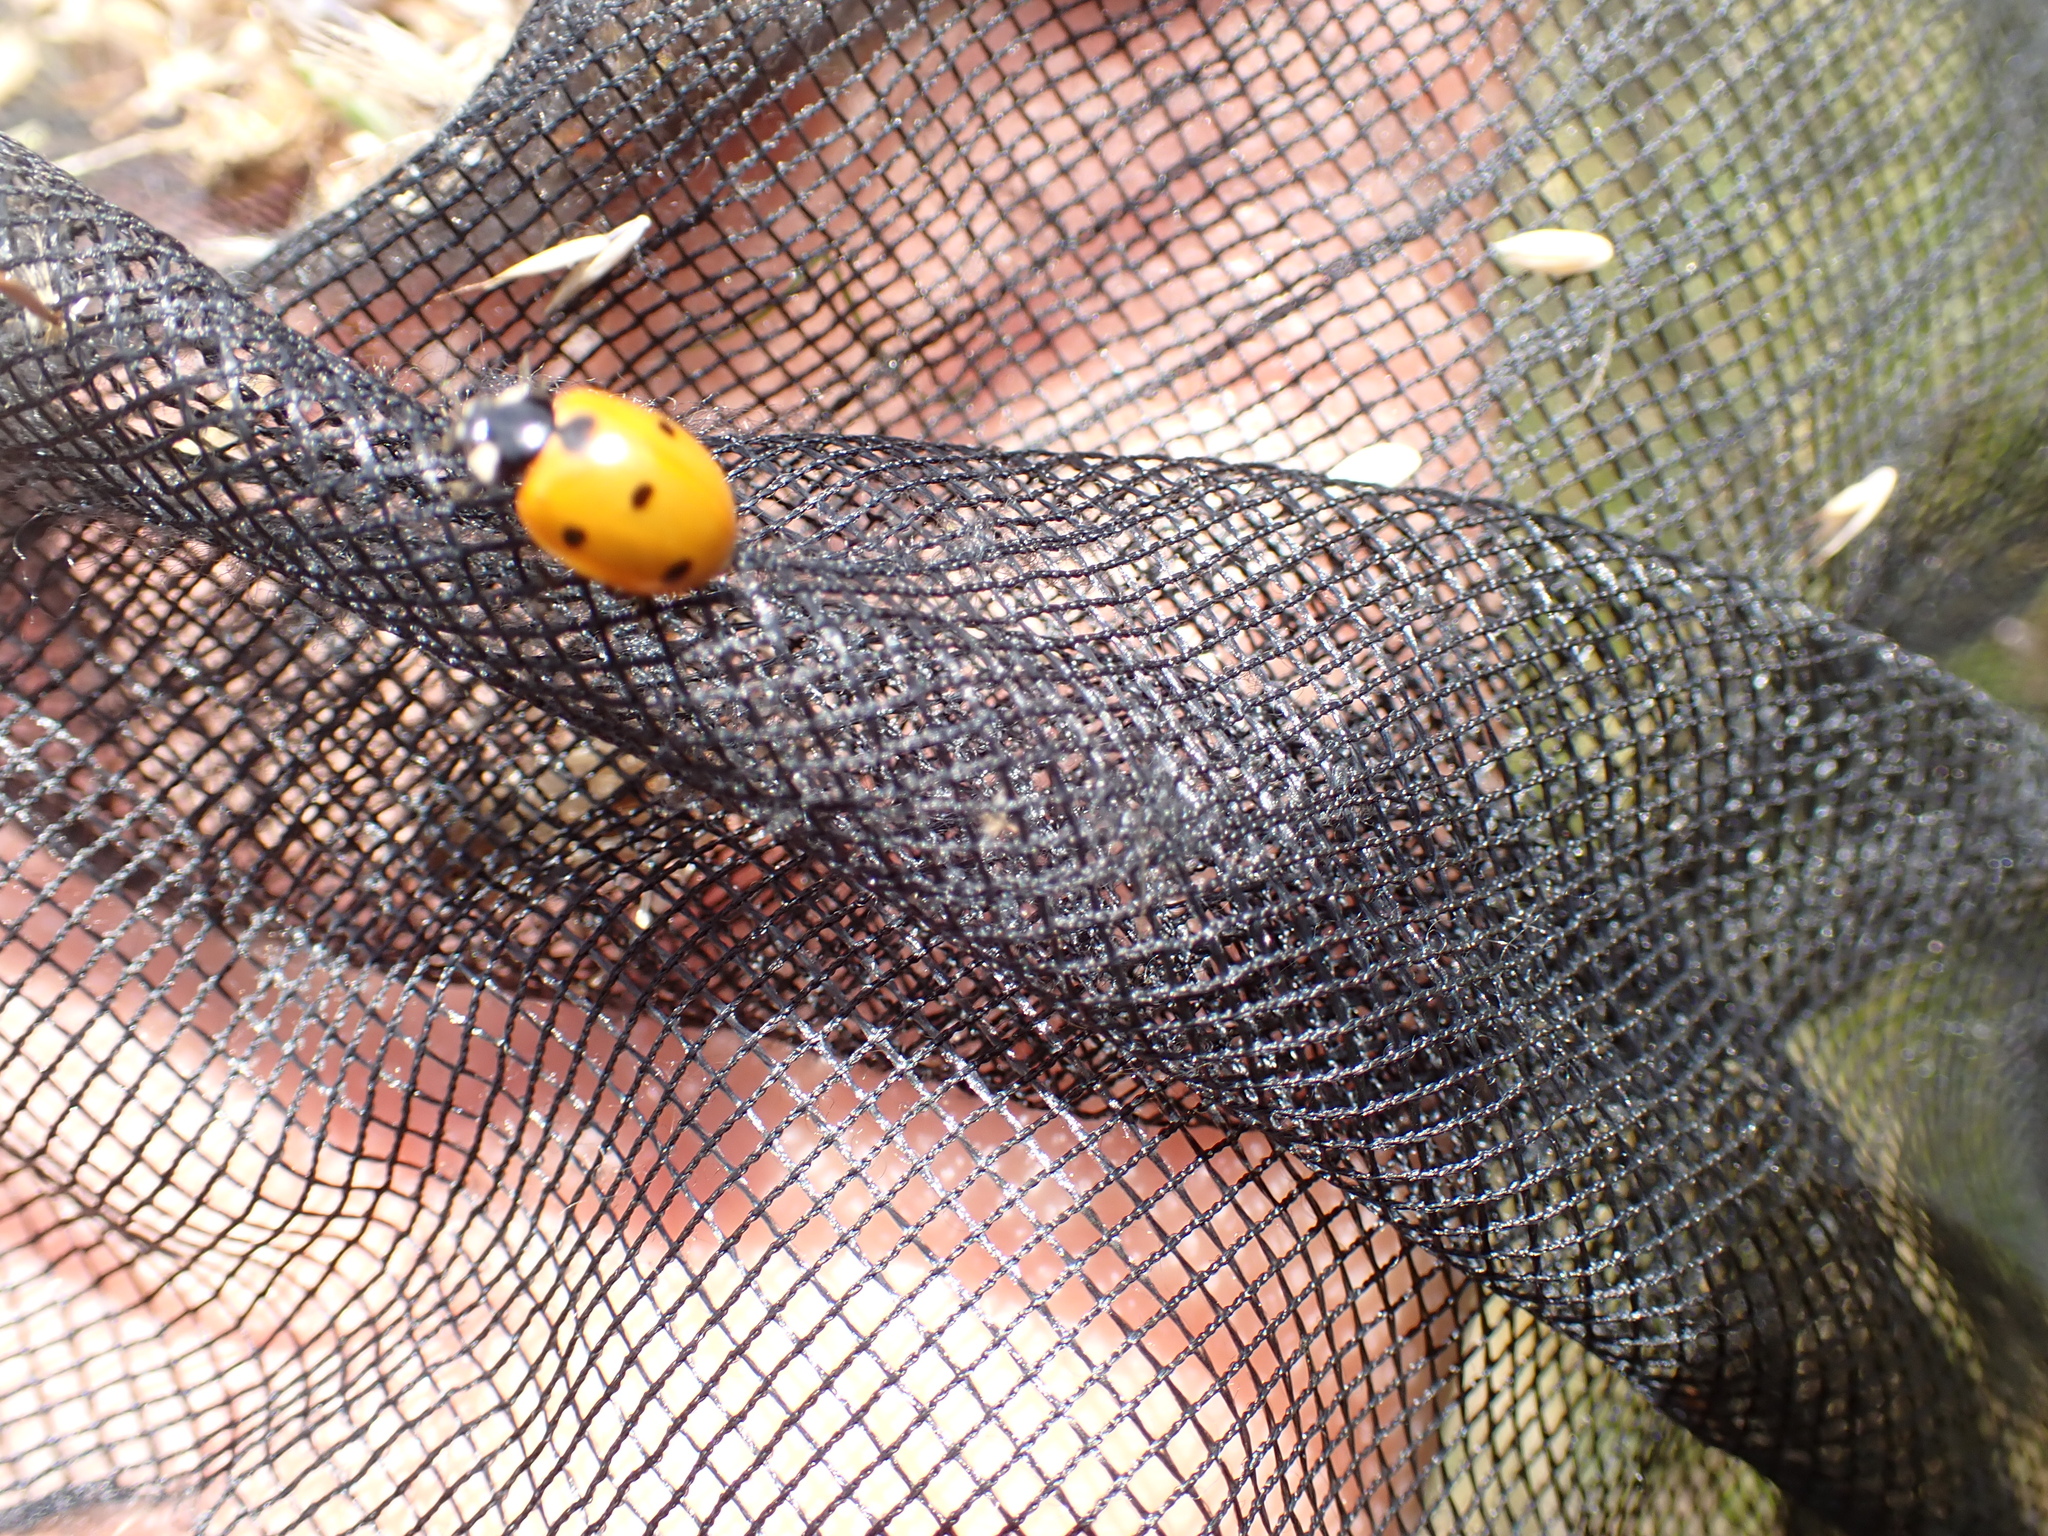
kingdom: Animalia
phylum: Arthropoda
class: Insecta
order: Coleoptera
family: Coccinellidae
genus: Coccinella
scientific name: Coccinella septempunctata
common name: Sevenspotted lady beetle
